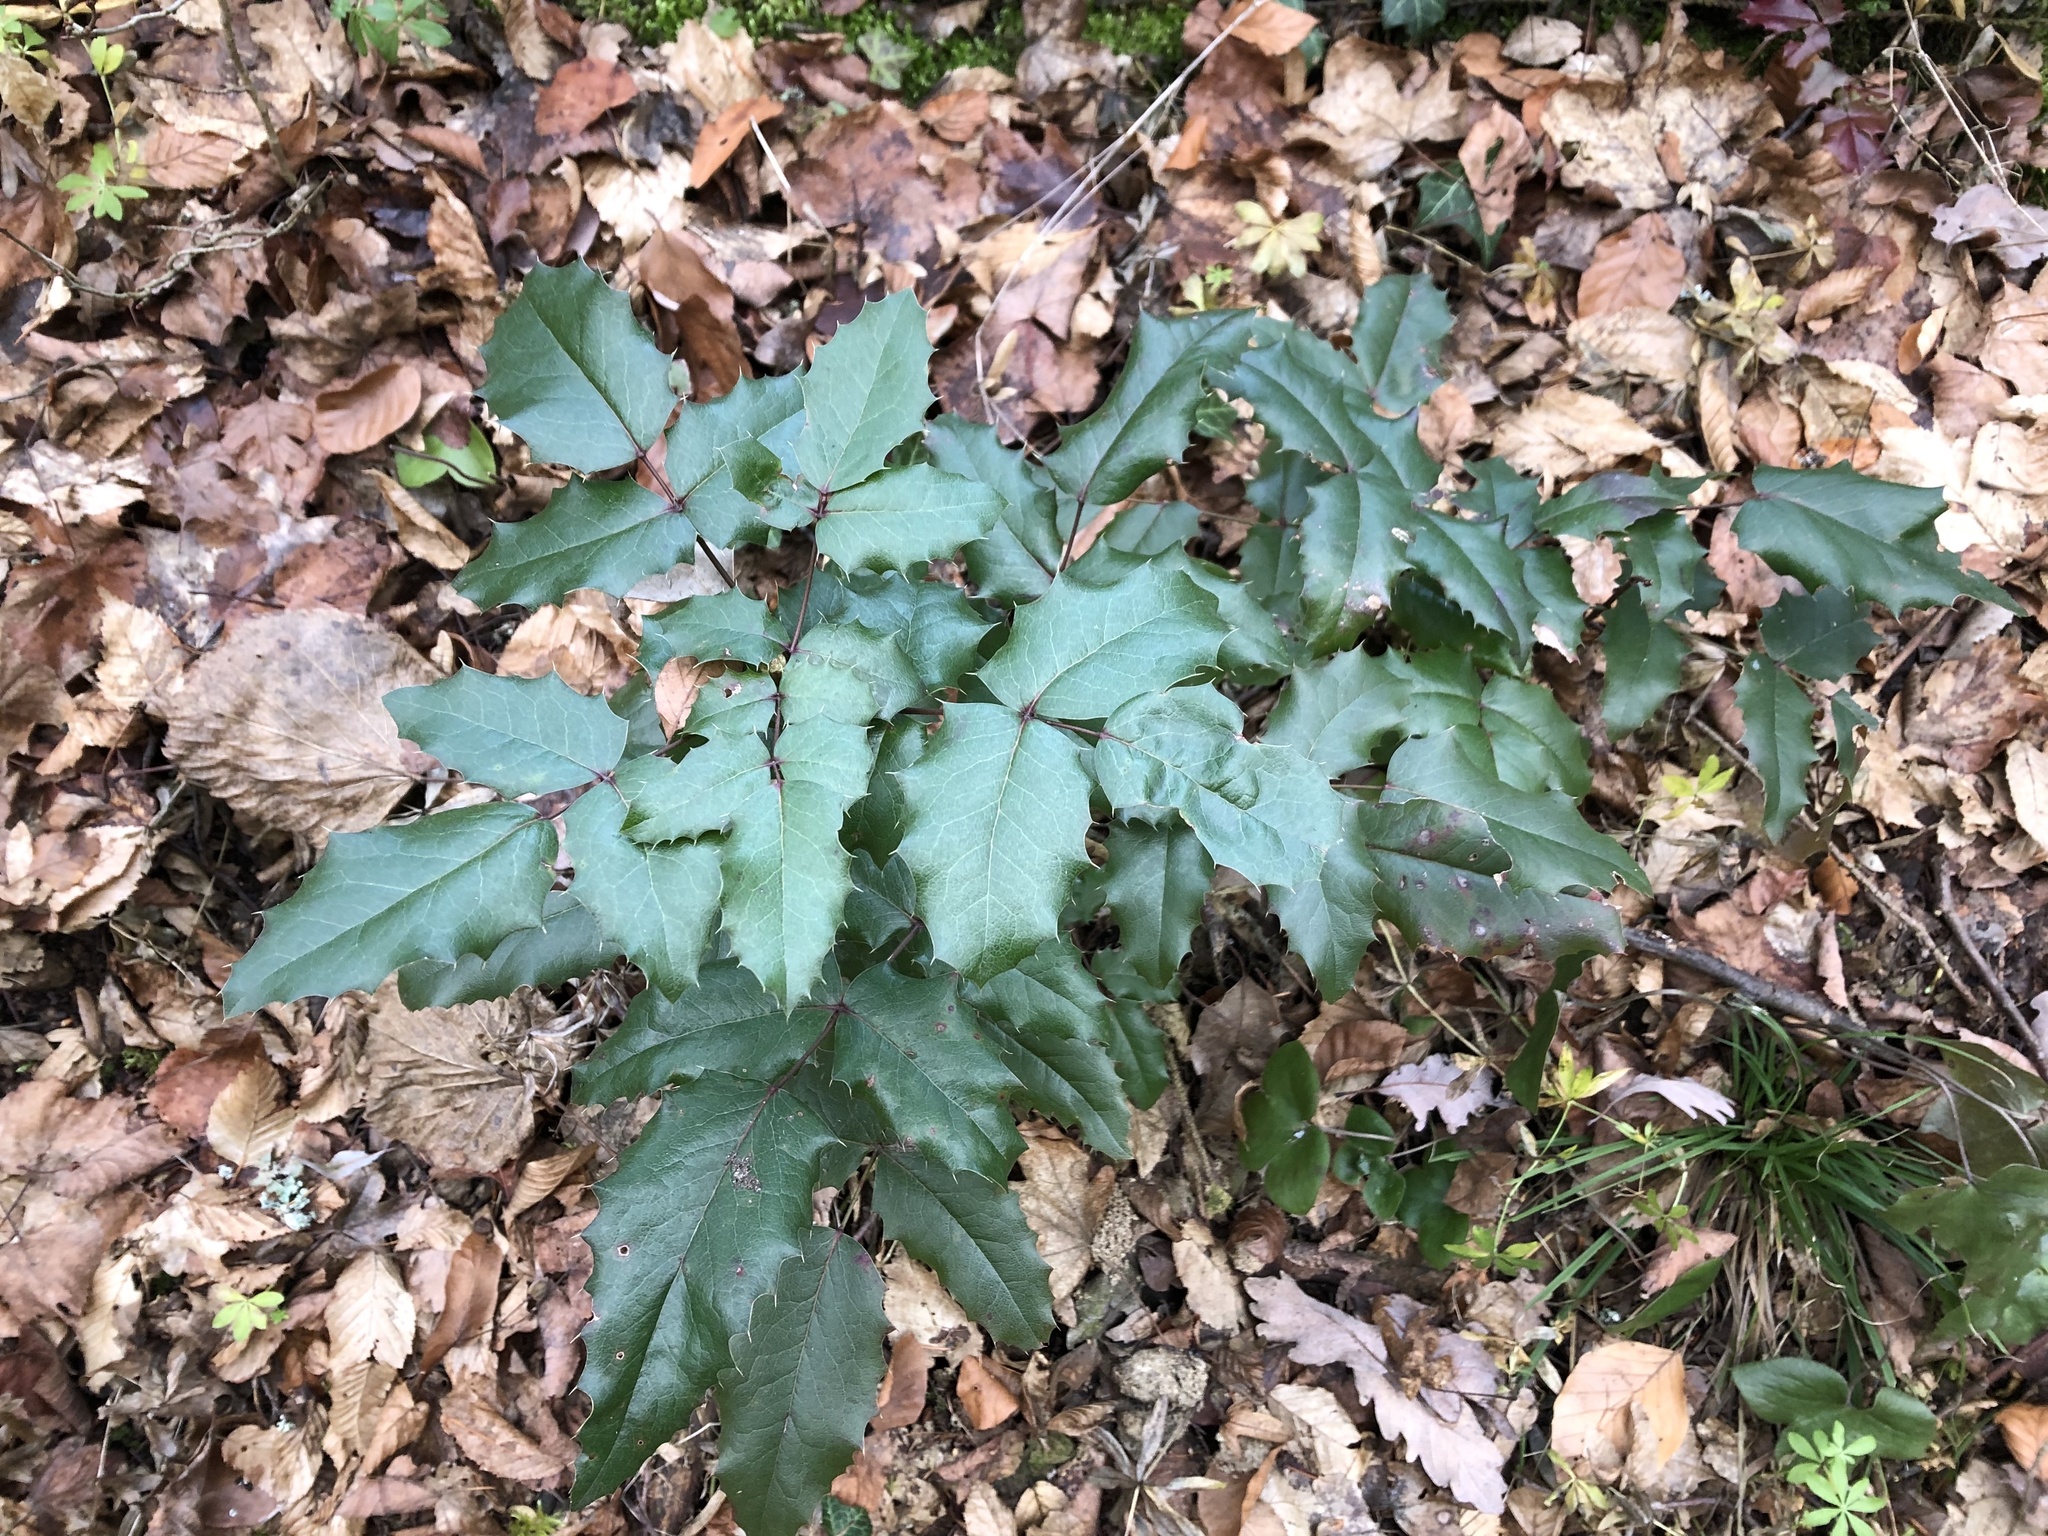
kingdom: Plantae
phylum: Tracheophyta
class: Magnoliopsida
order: Ranunculales
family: Berberidaceae
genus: Mahonia
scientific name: Mahonia aquifolium
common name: Oregon-grape
